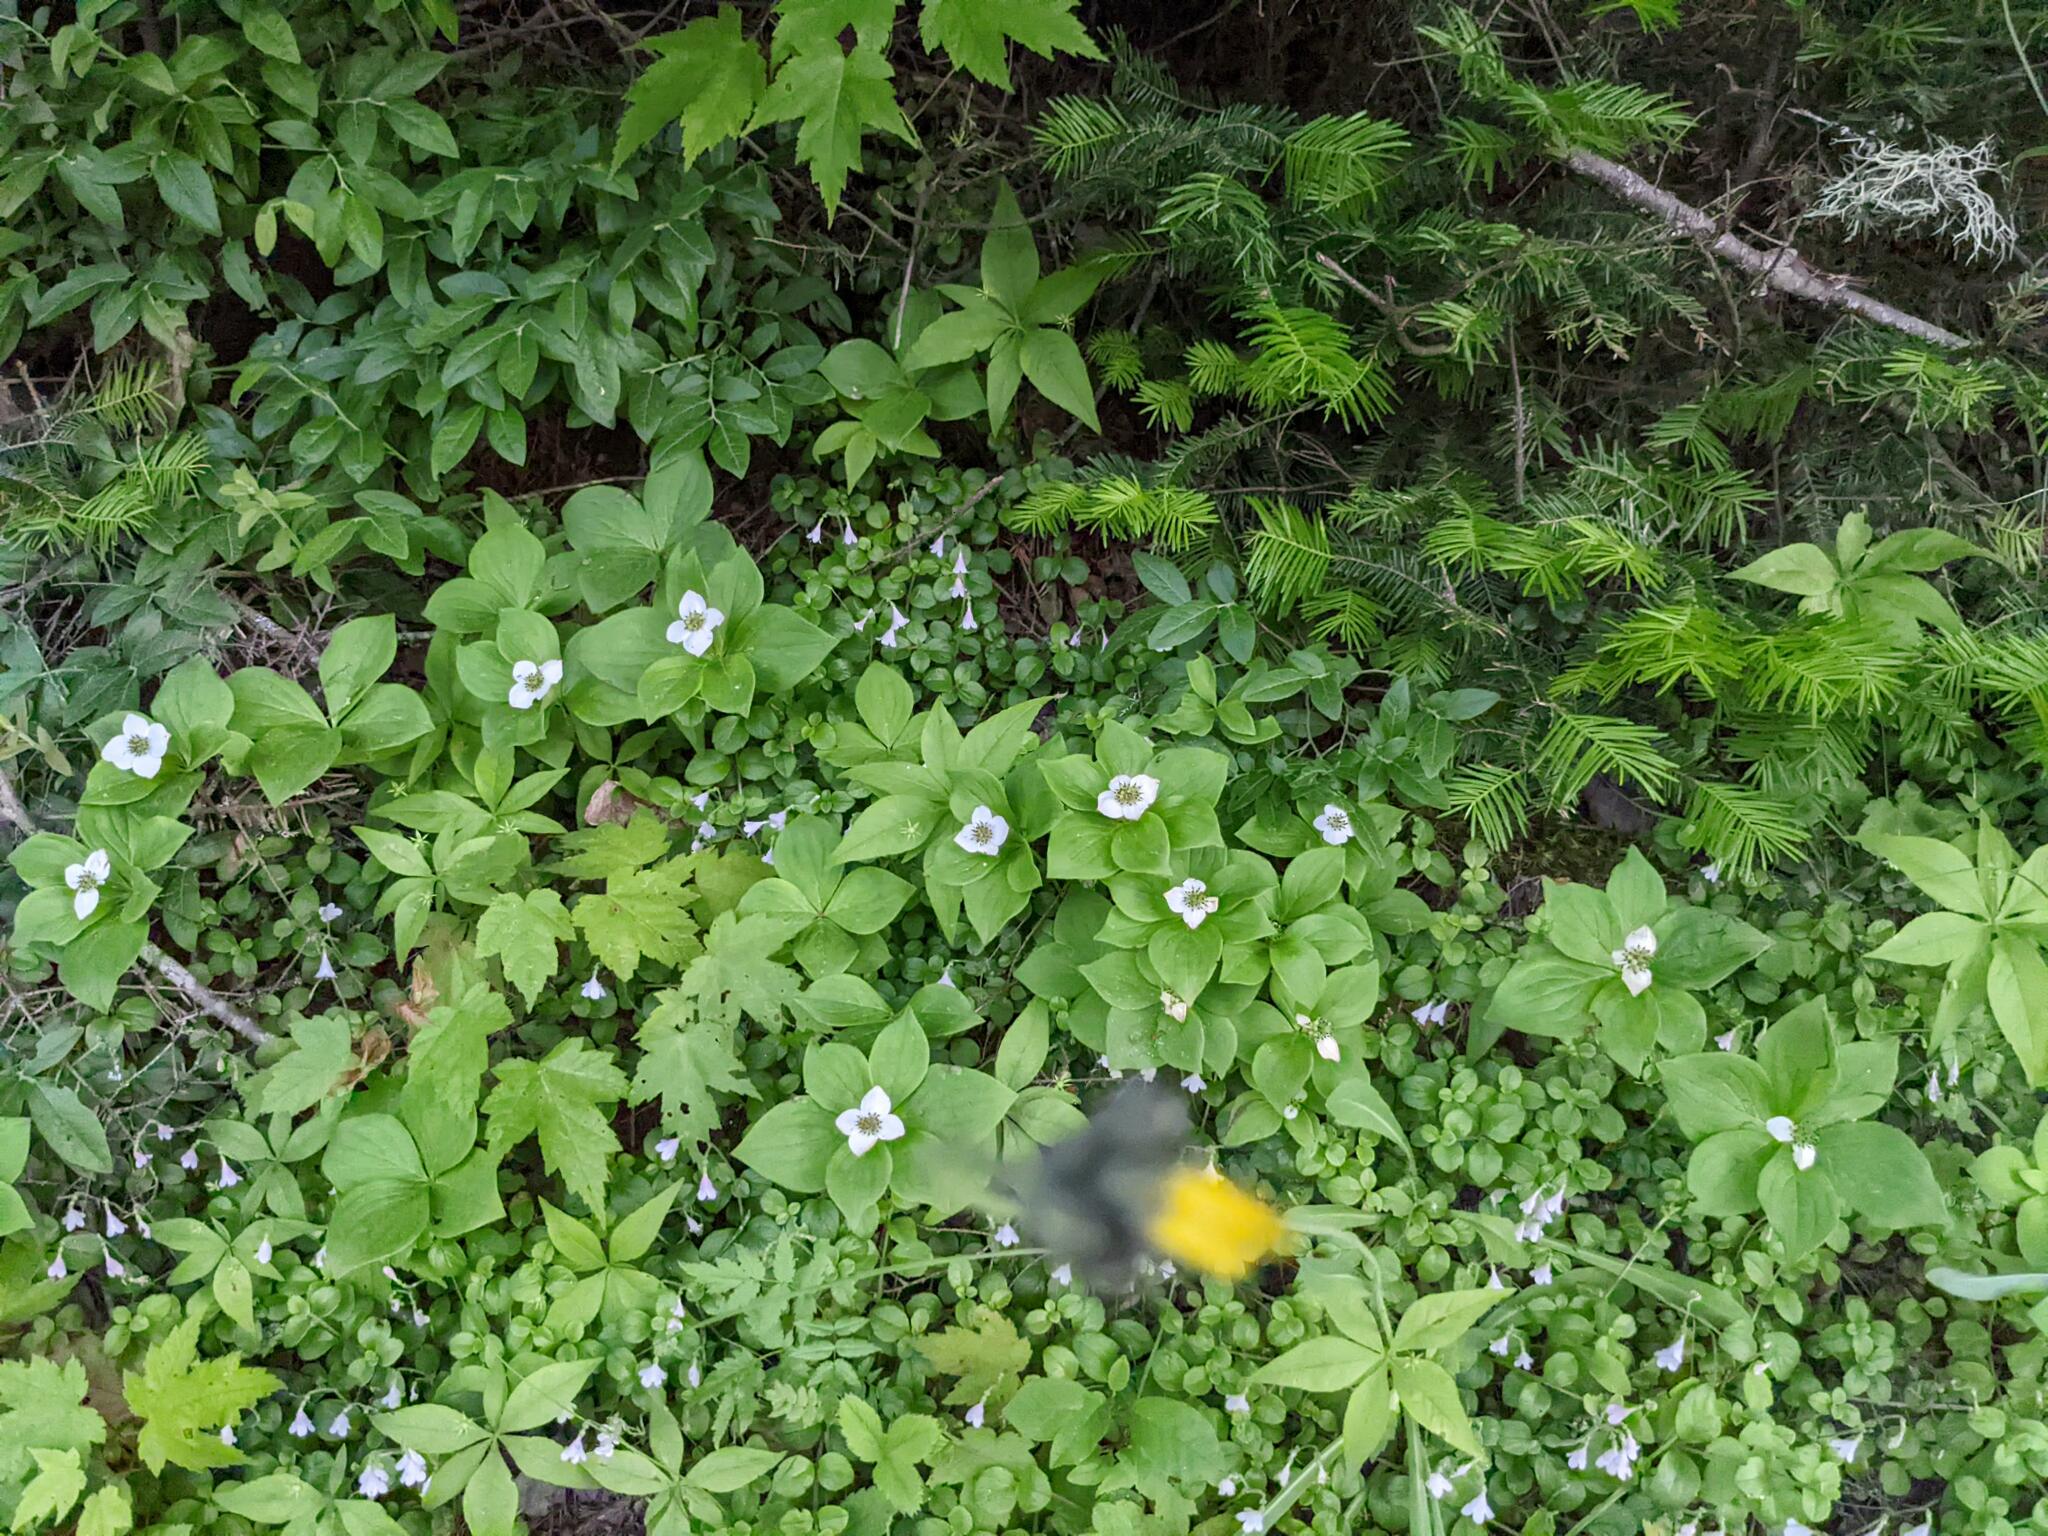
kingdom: Plantae
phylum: Tracheophyta
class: Magnoliopsida
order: Cornales
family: Cornaceae
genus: Cornus
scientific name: Cornus canadensis
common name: Creeping dogwood
